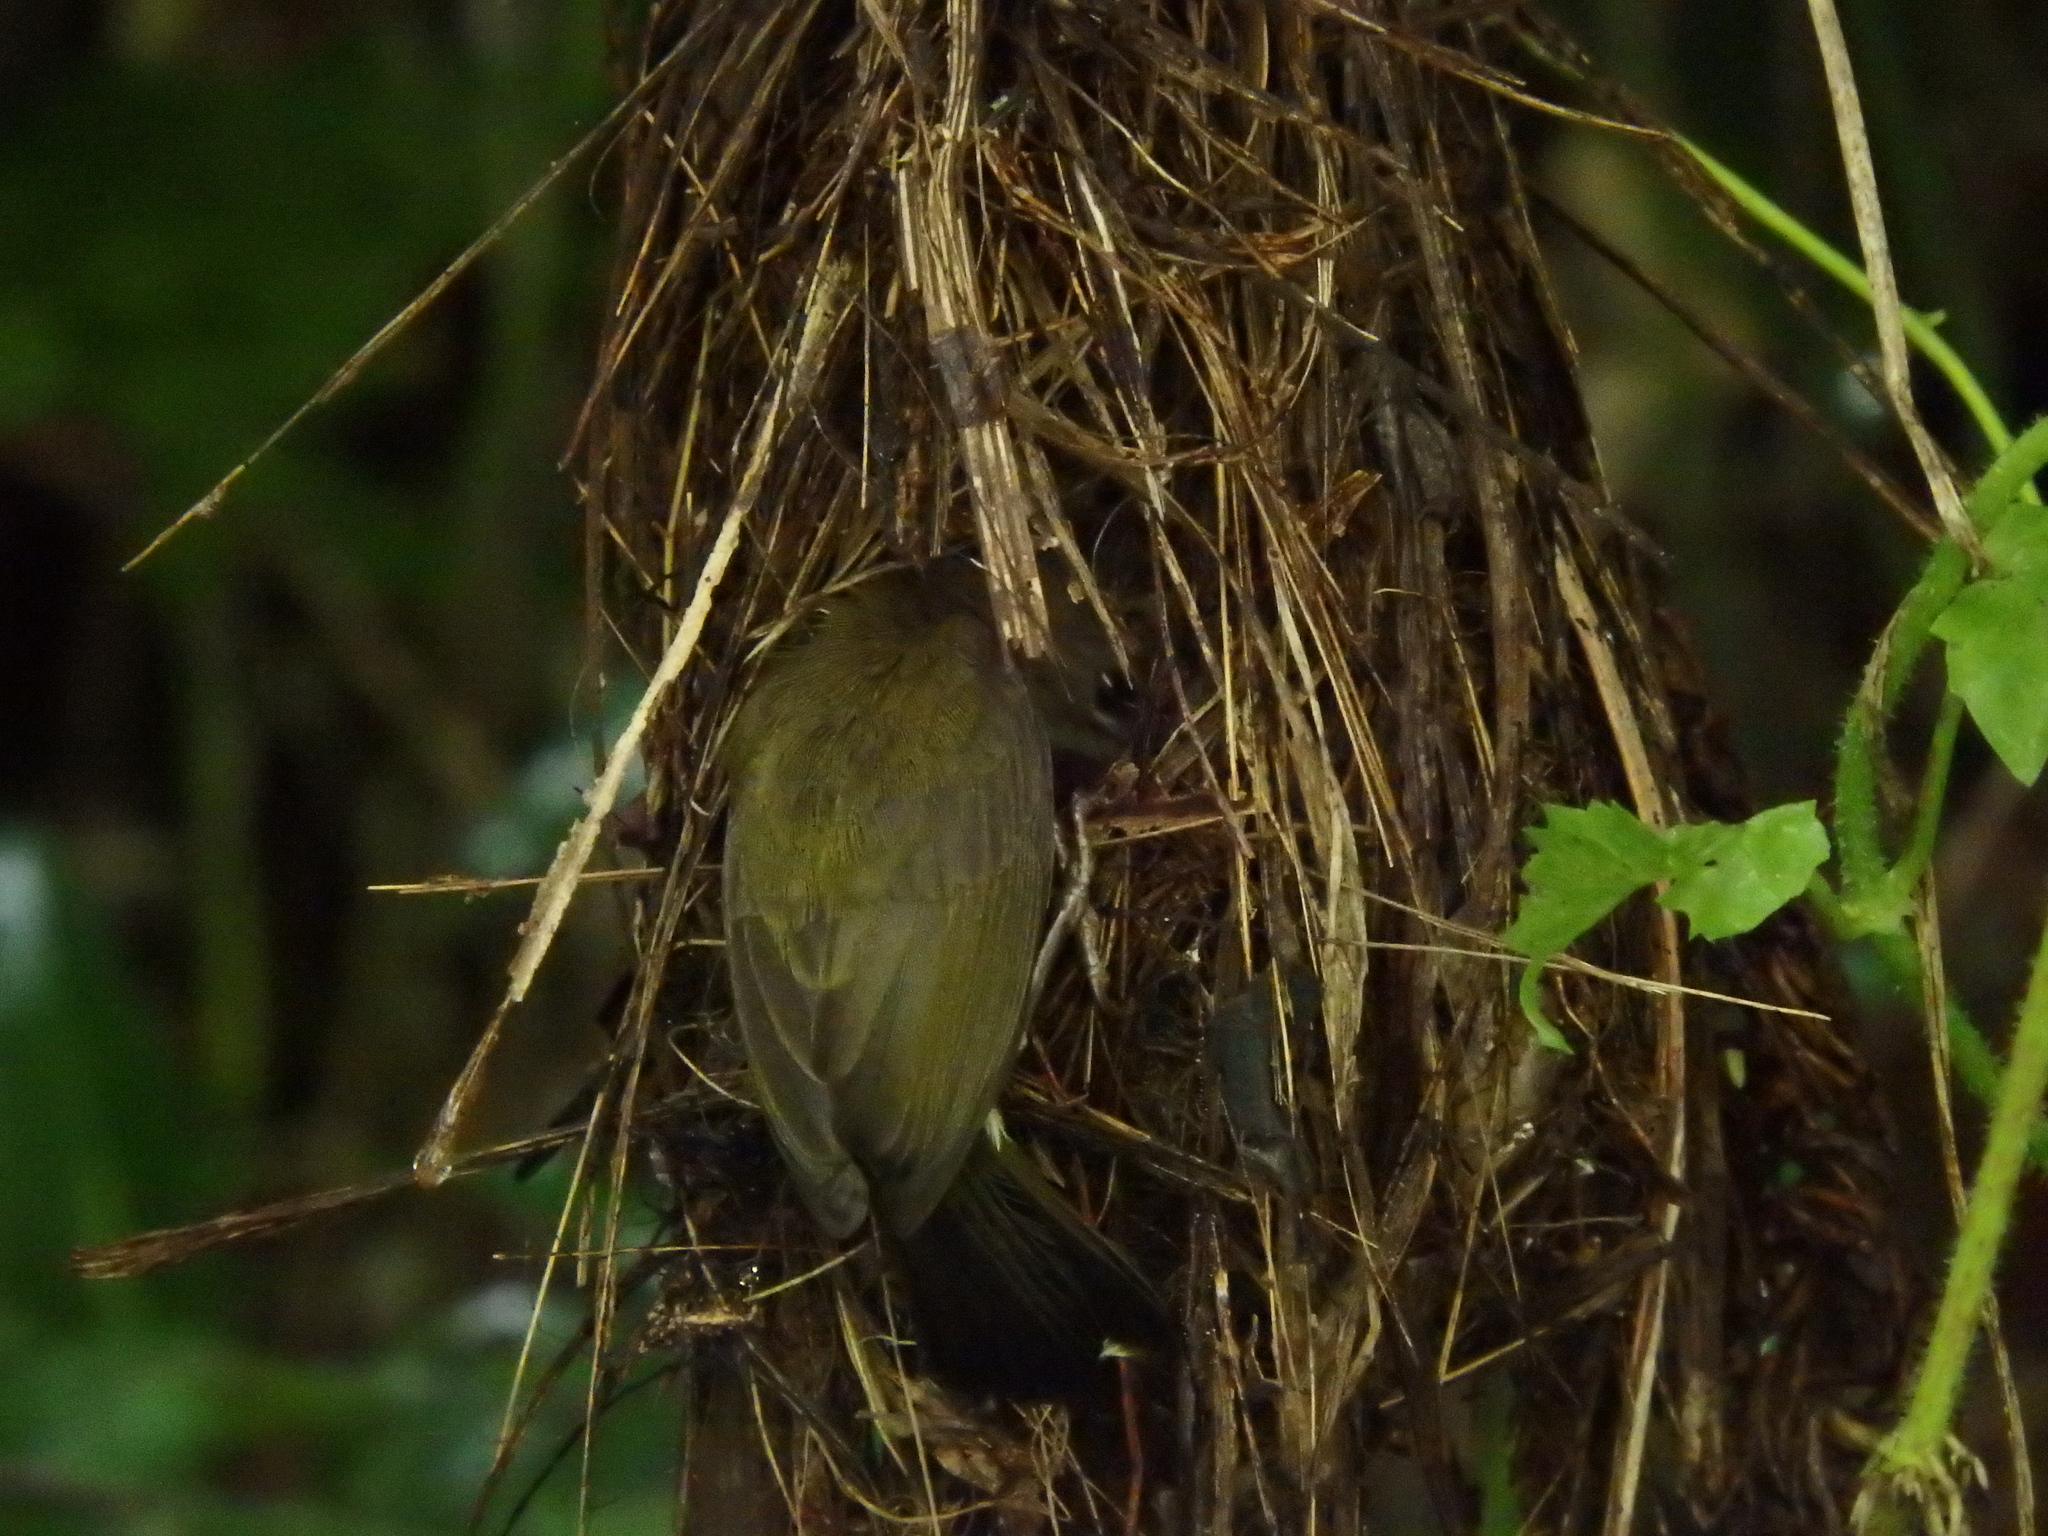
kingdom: Animalia
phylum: Chordata
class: Aves
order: Passeriformes
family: Nectariniidae
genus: Aethopyga
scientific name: Aethopyga siparaja
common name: Crimson sunbird
